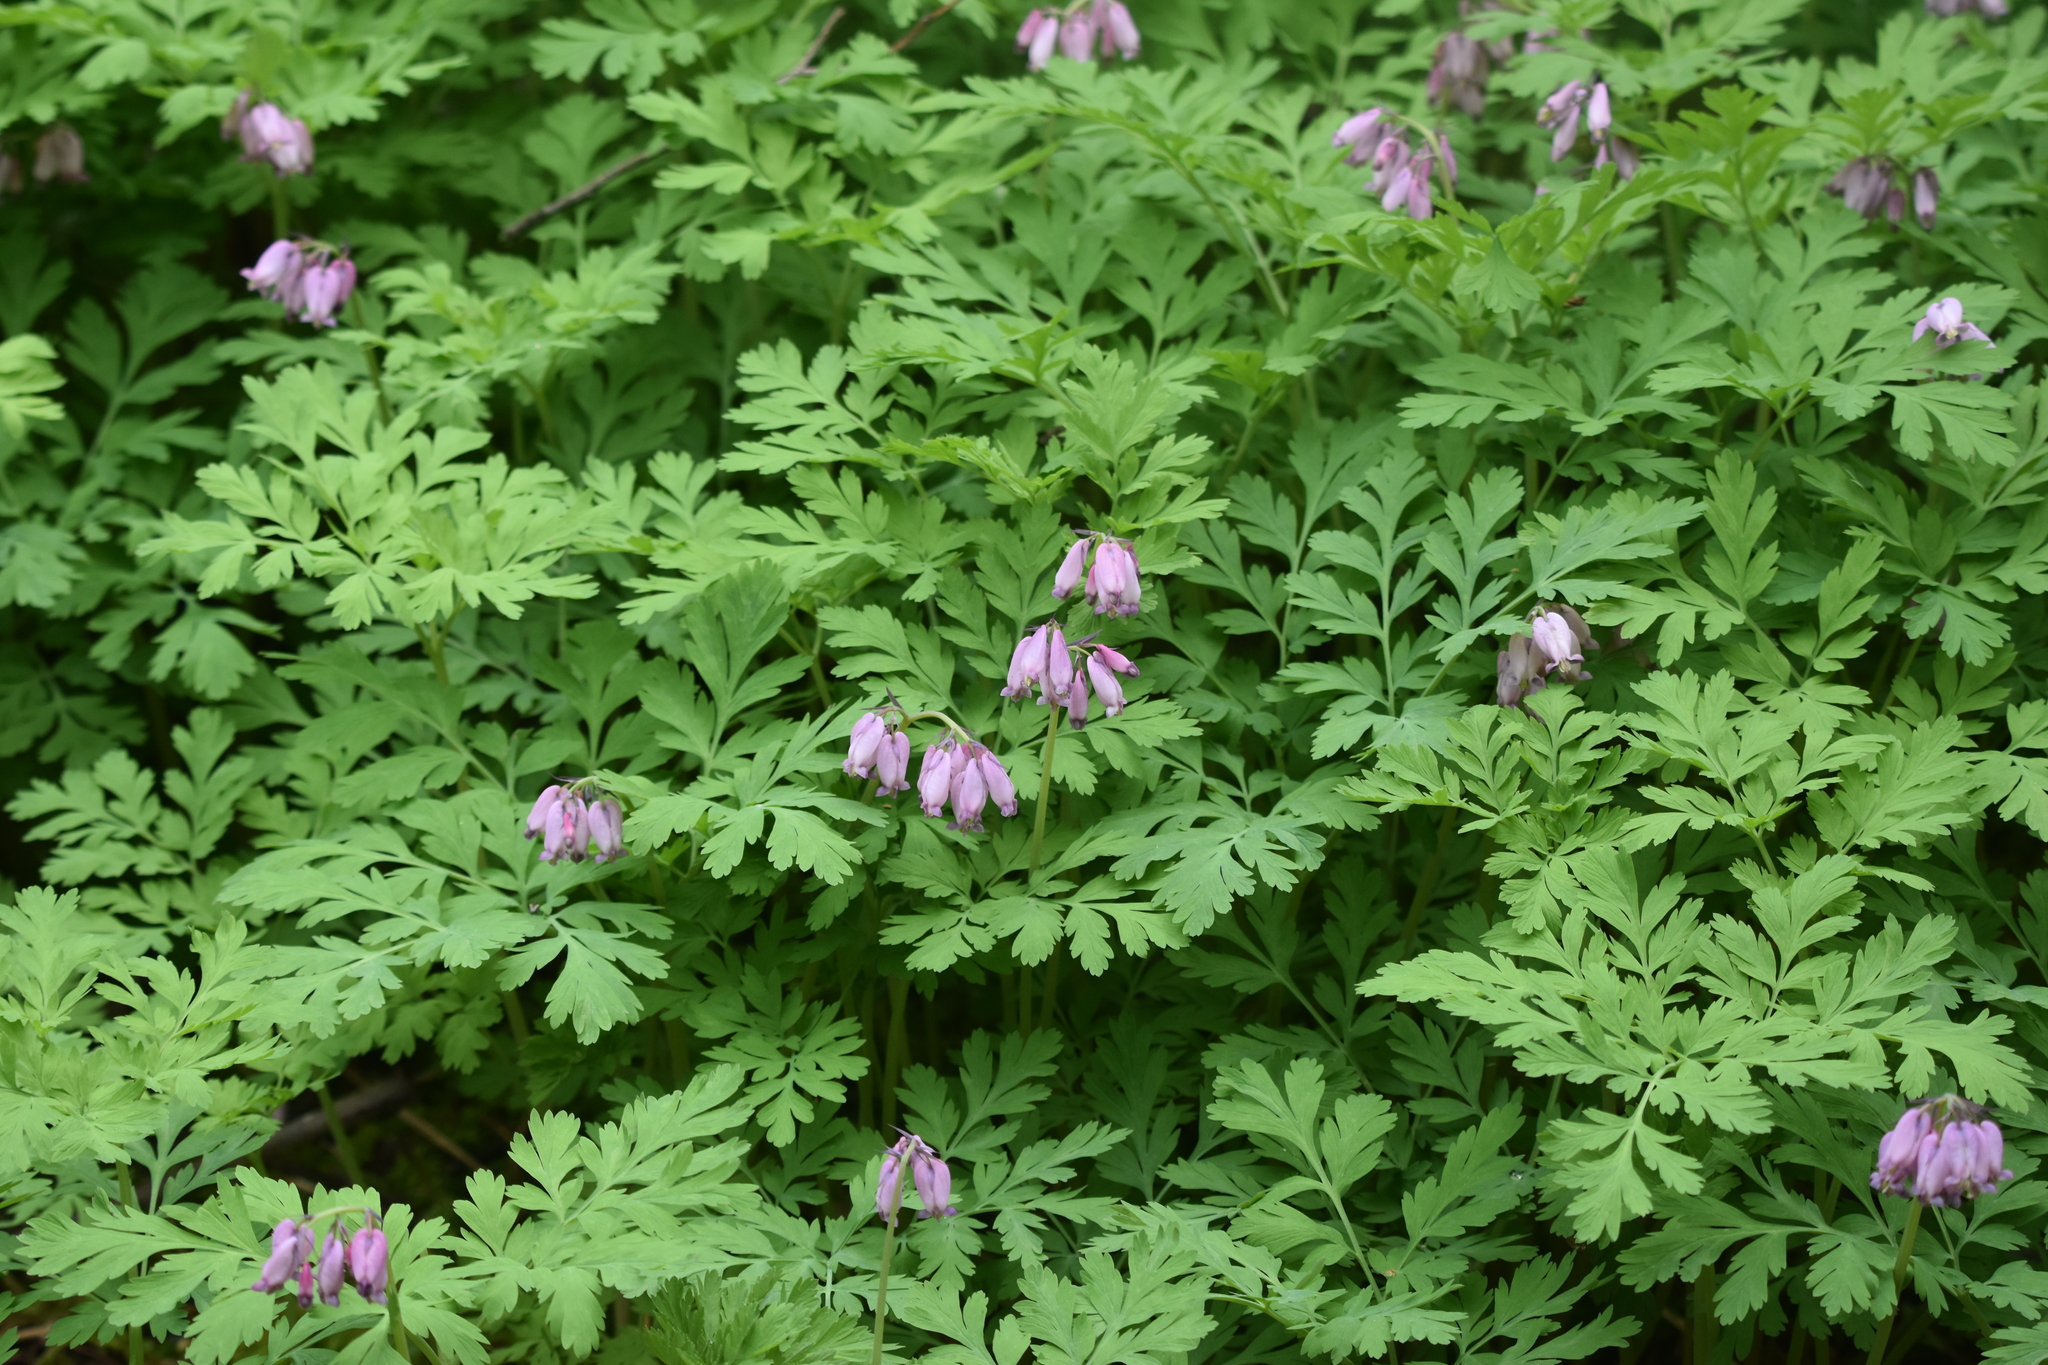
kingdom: Plantae
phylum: Tracheophyta
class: Magnoliopsida
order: Ranunculales
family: Papaveraceae
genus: Dicentra
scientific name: Dicentra formosa
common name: Bleeding-heart
